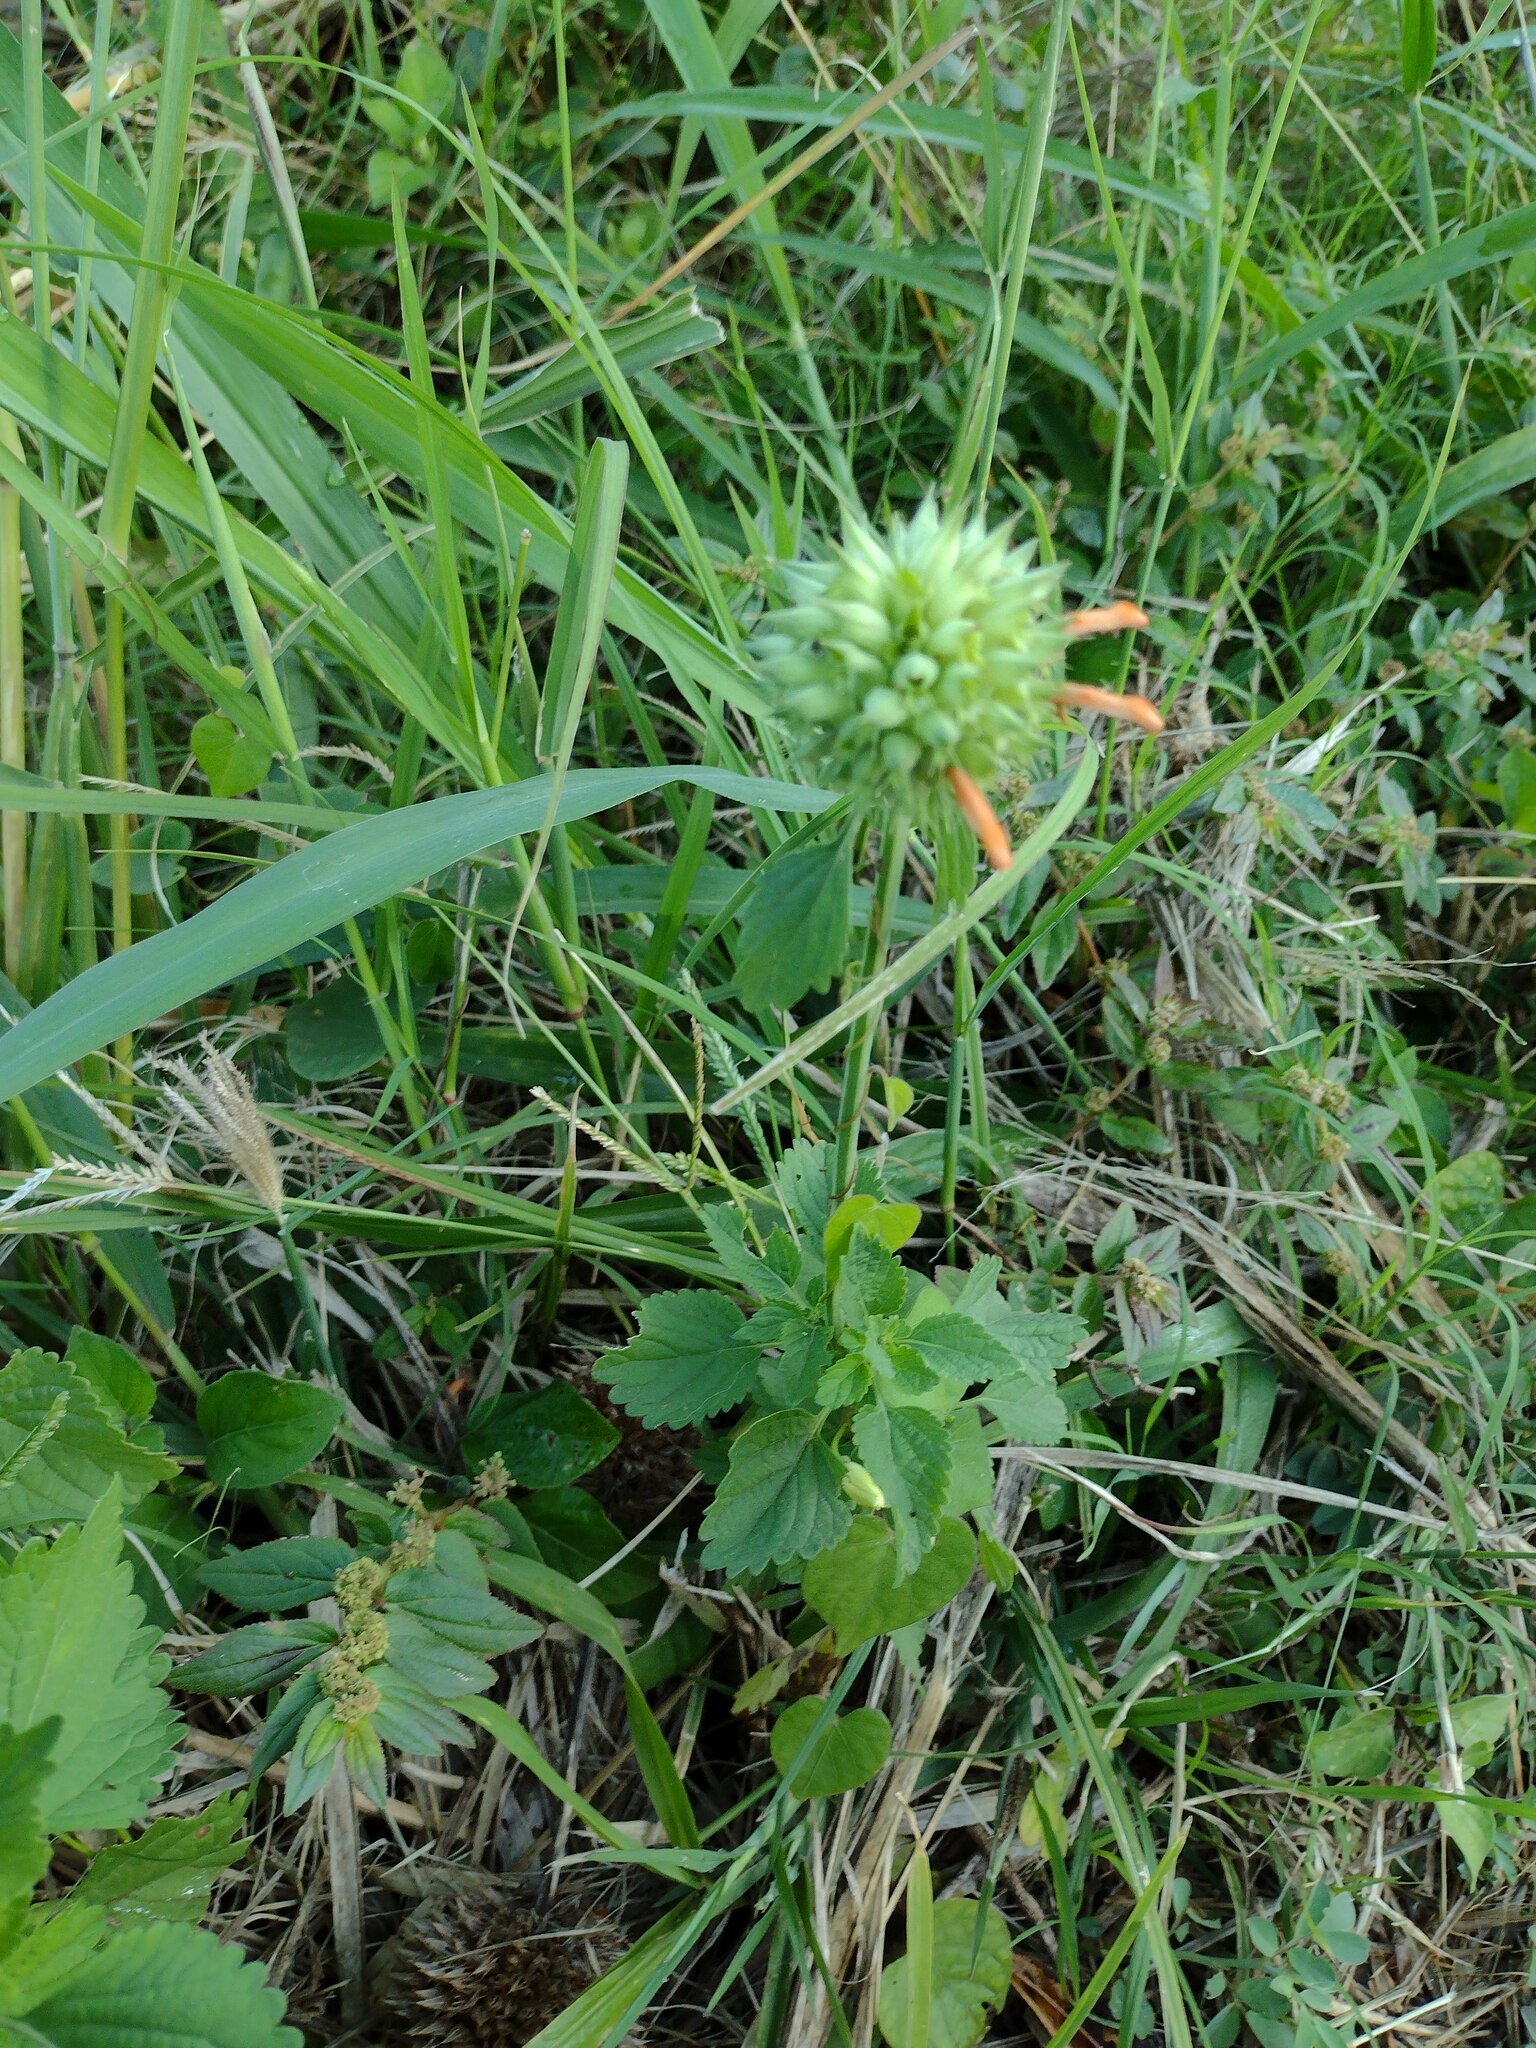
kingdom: Plantae
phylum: Tracheophyta
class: Magnoliopsida
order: Lamiales
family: Lamiaceae
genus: Leonotis
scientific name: Leonotis nepetifolia
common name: Christmas candlestick
